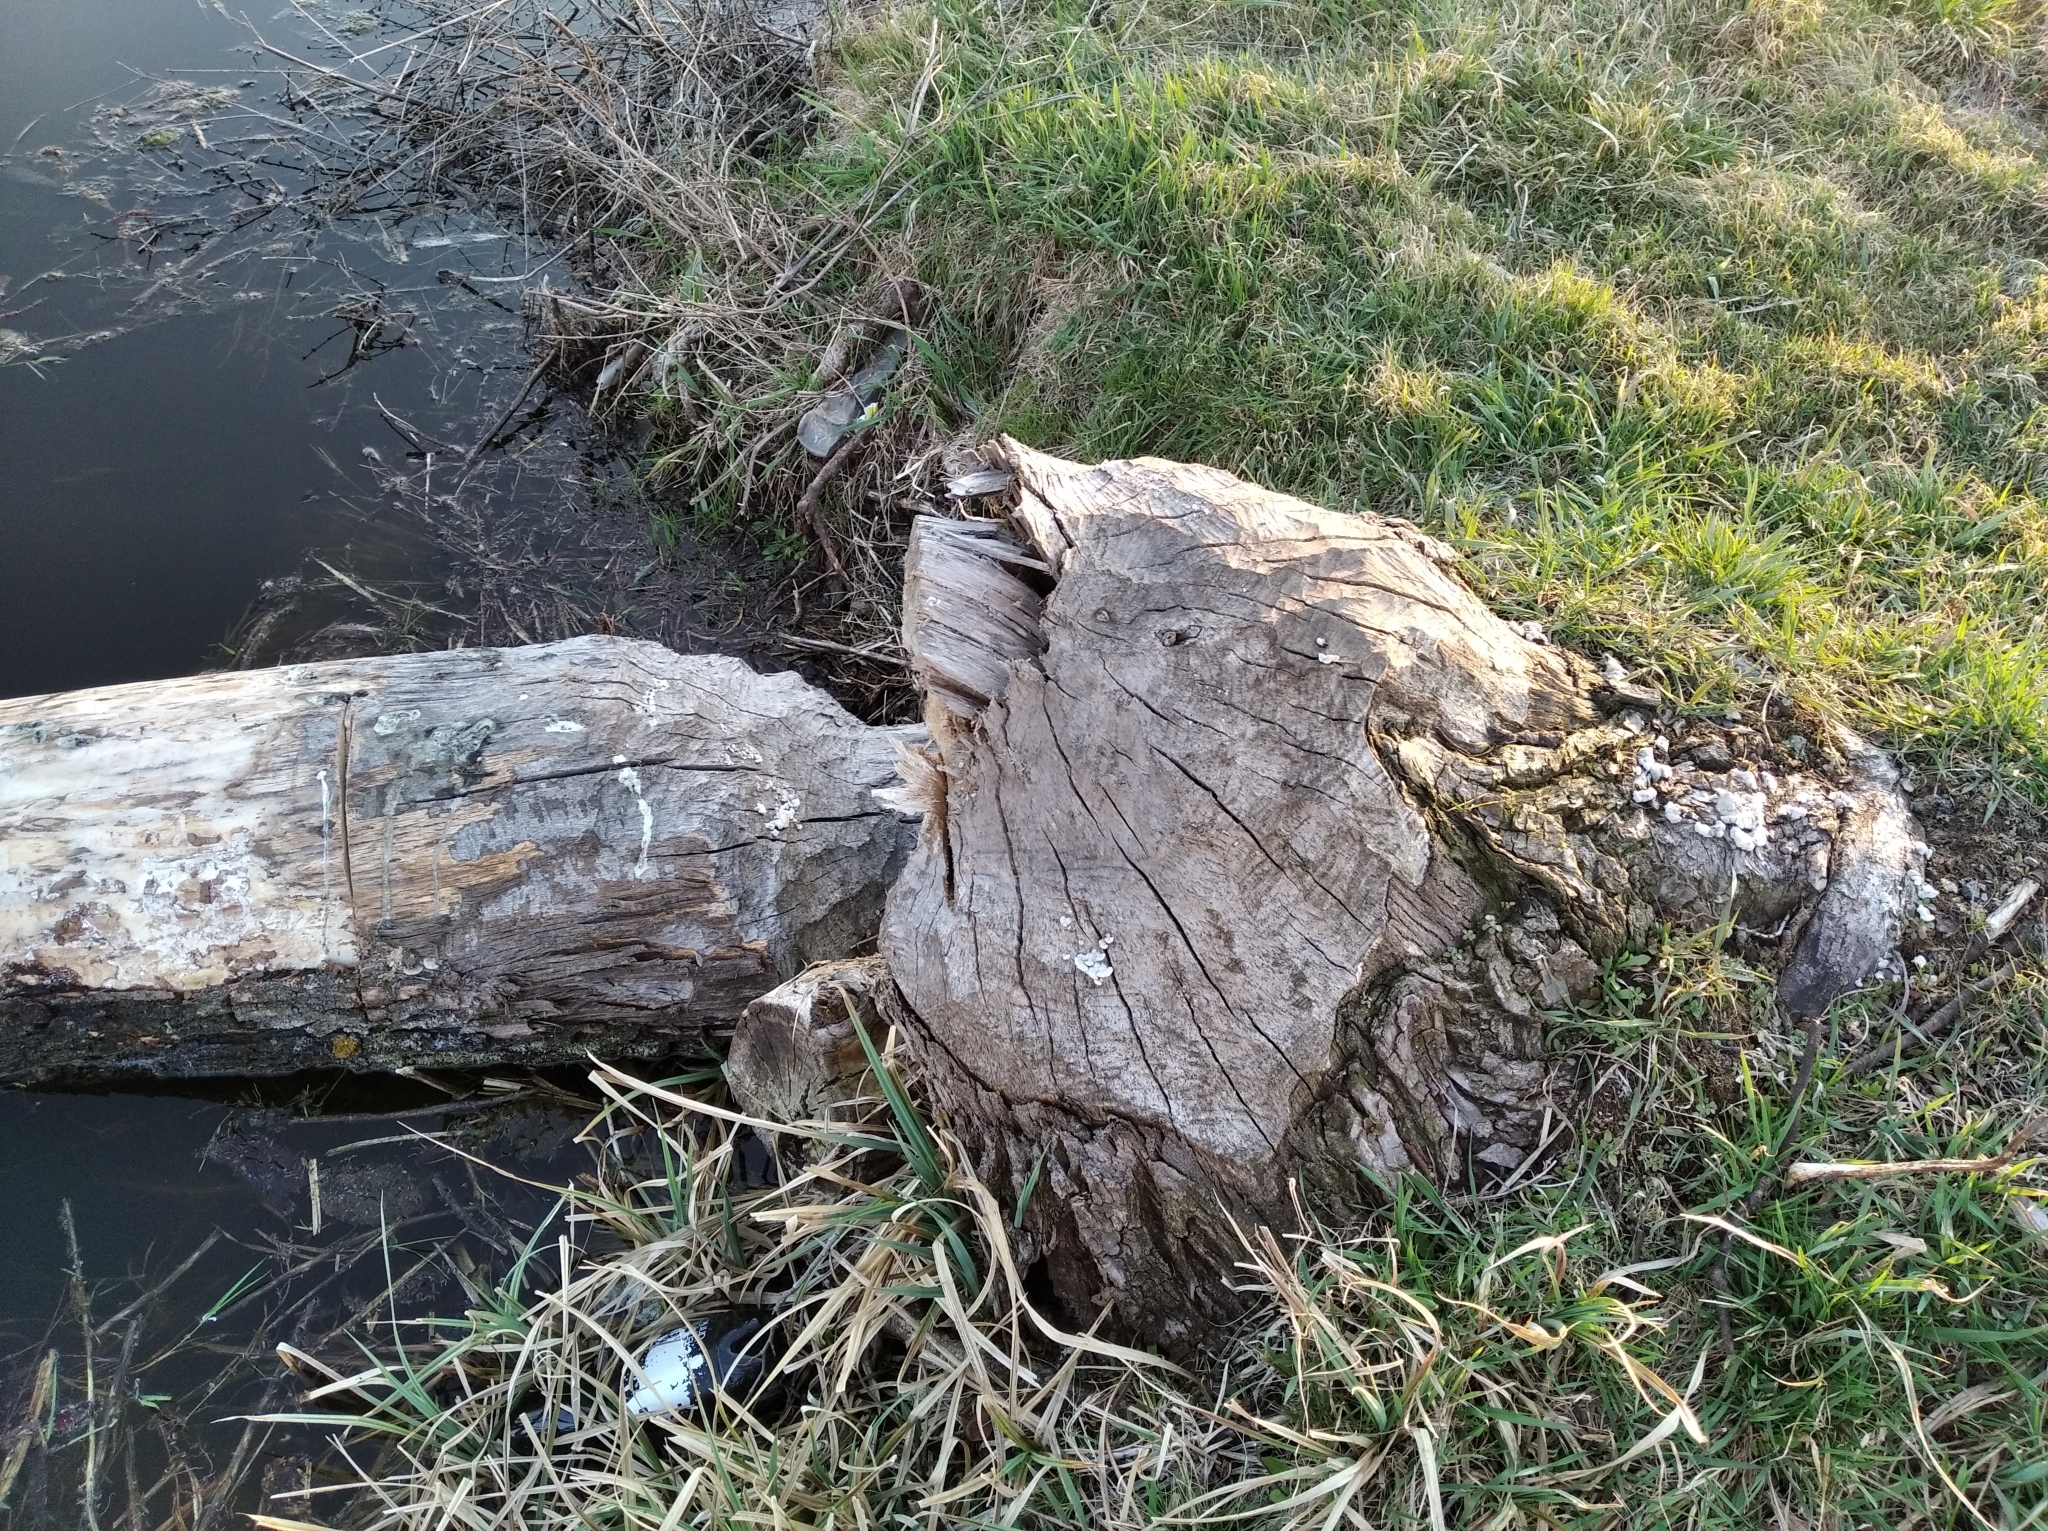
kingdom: Animalia
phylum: Chordata
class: Mammalia
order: Rodentia
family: Castoridae
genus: Castor
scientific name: Castor fiber
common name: Eurasian beaver
